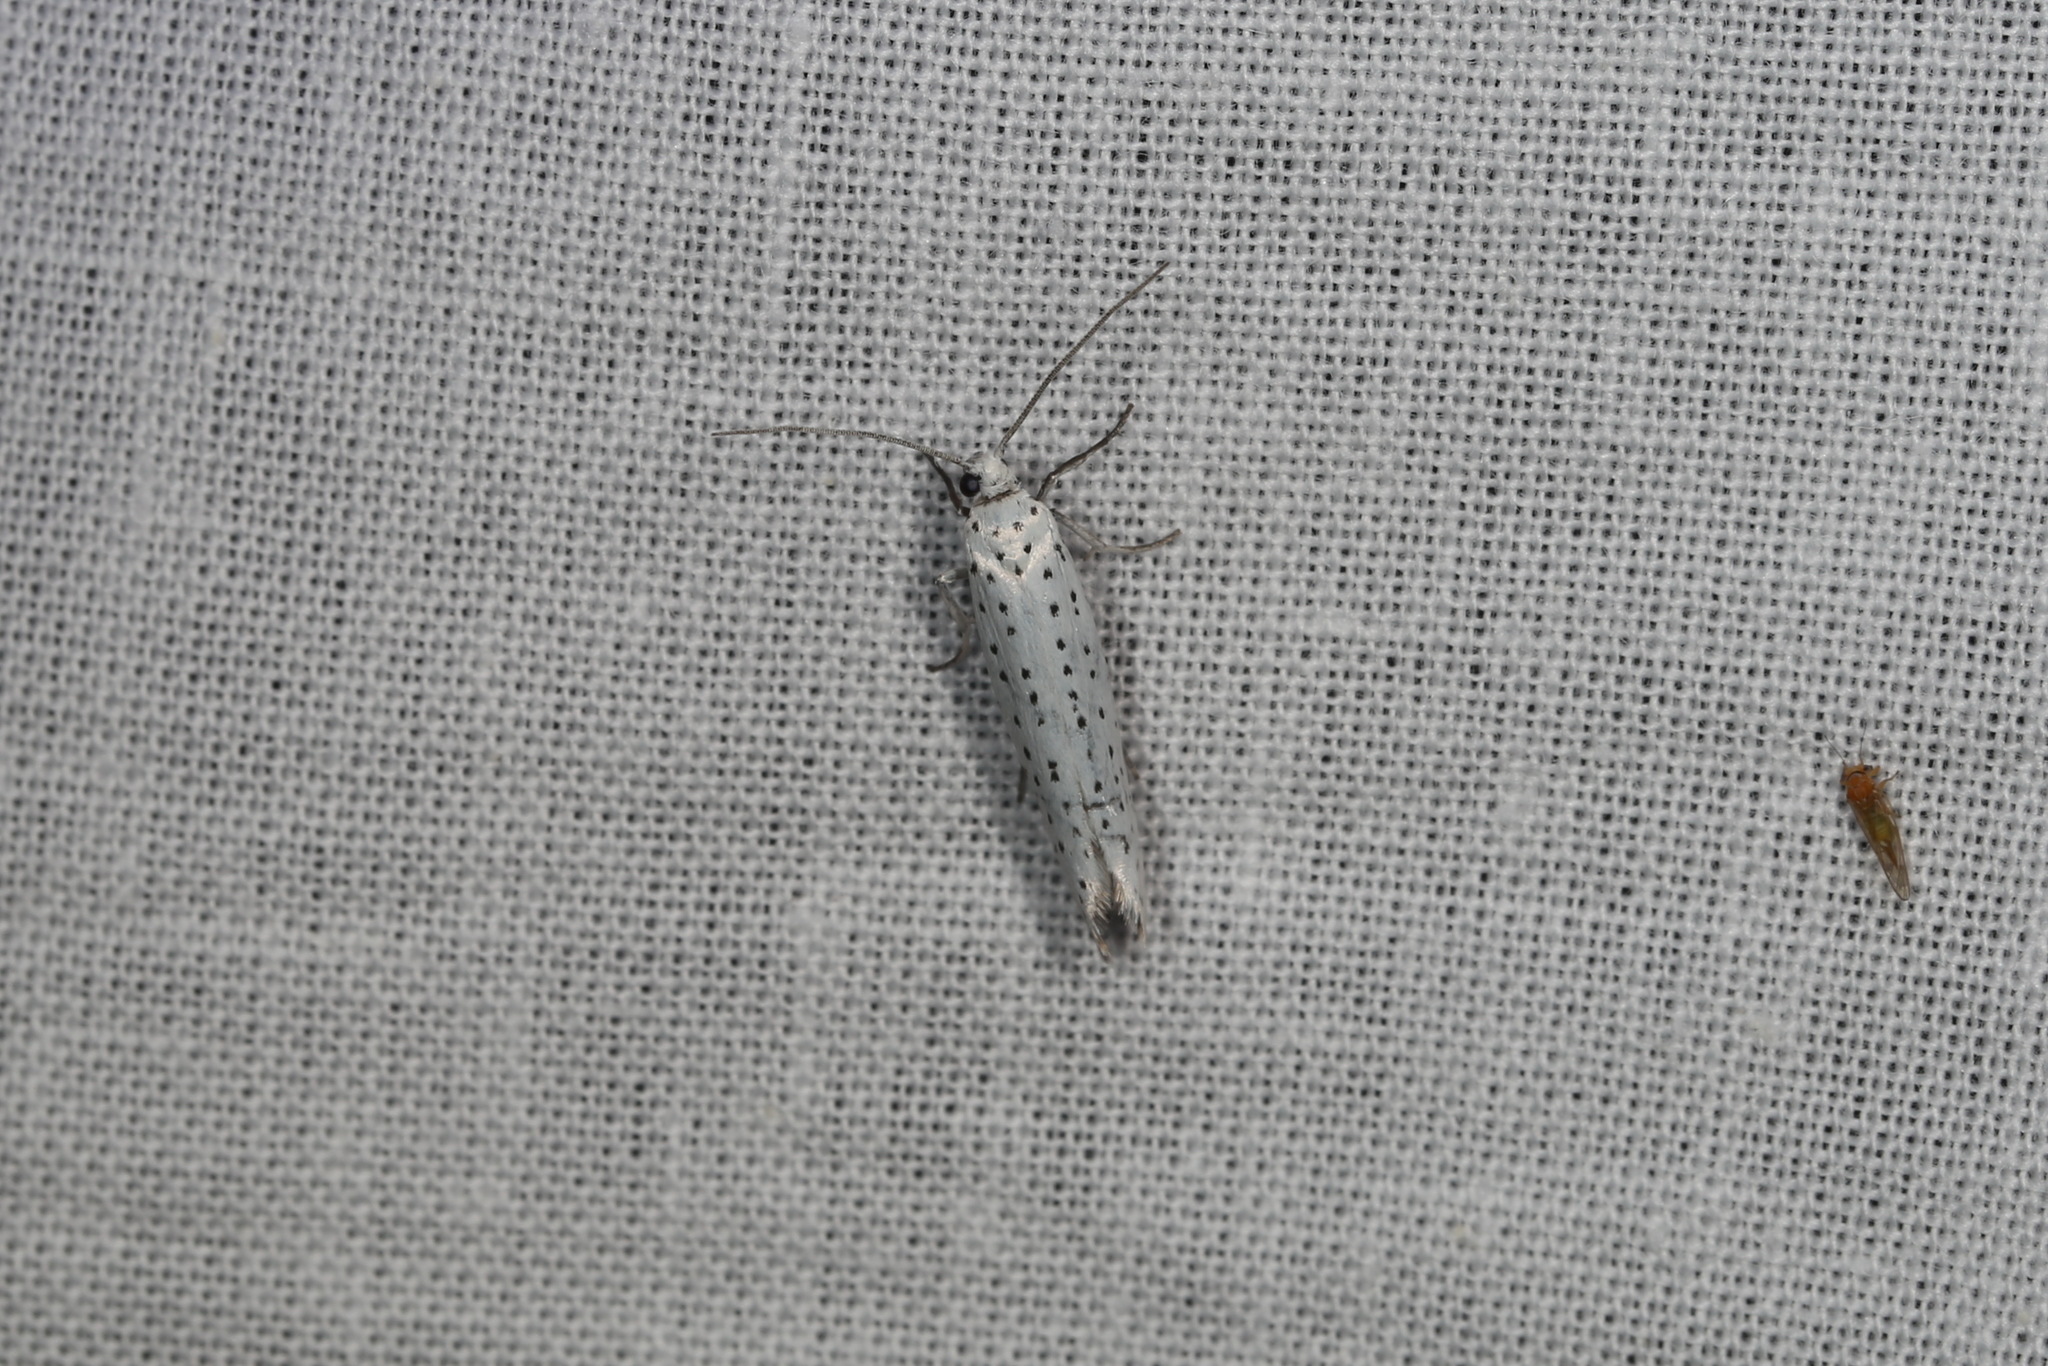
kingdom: Animalia
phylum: Arthropoda
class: Insecta
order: Lepidoptera
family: Yponomeutidae
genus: Yponomeuta
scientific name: Yponomeuta evonymella
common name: Bird-cherry ermine
